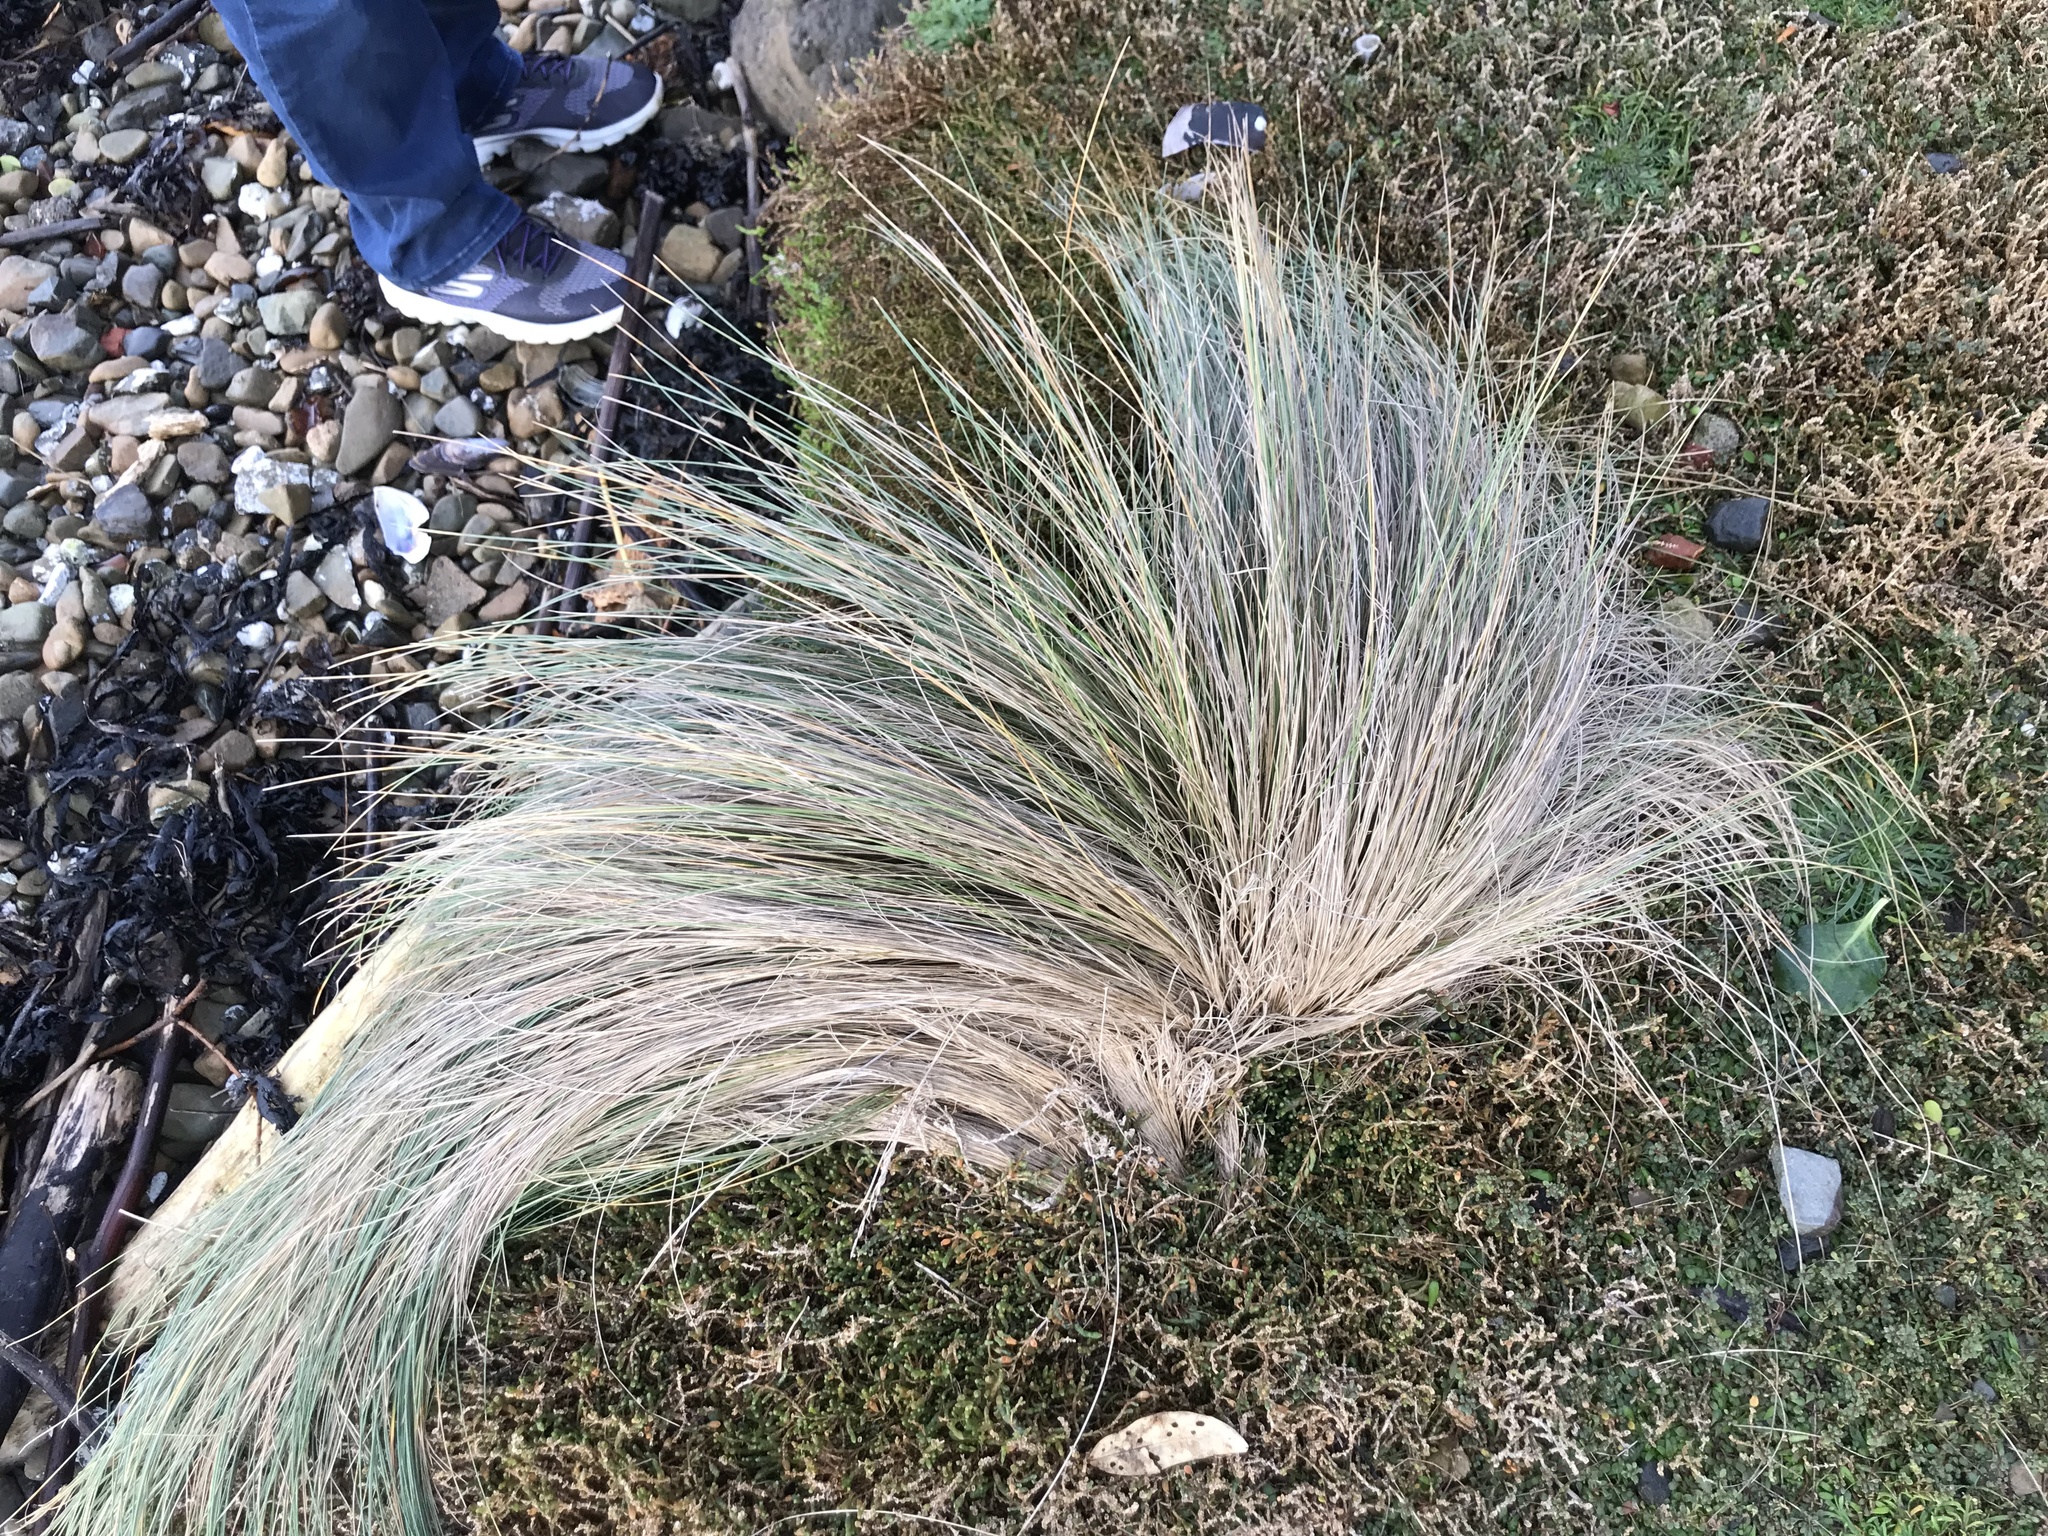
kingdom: Plantae
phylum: Tracheophyta
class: Liliopsida
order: Poales
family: Poaceae
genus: Poa
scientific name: Poa cita
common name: Silver tussock
